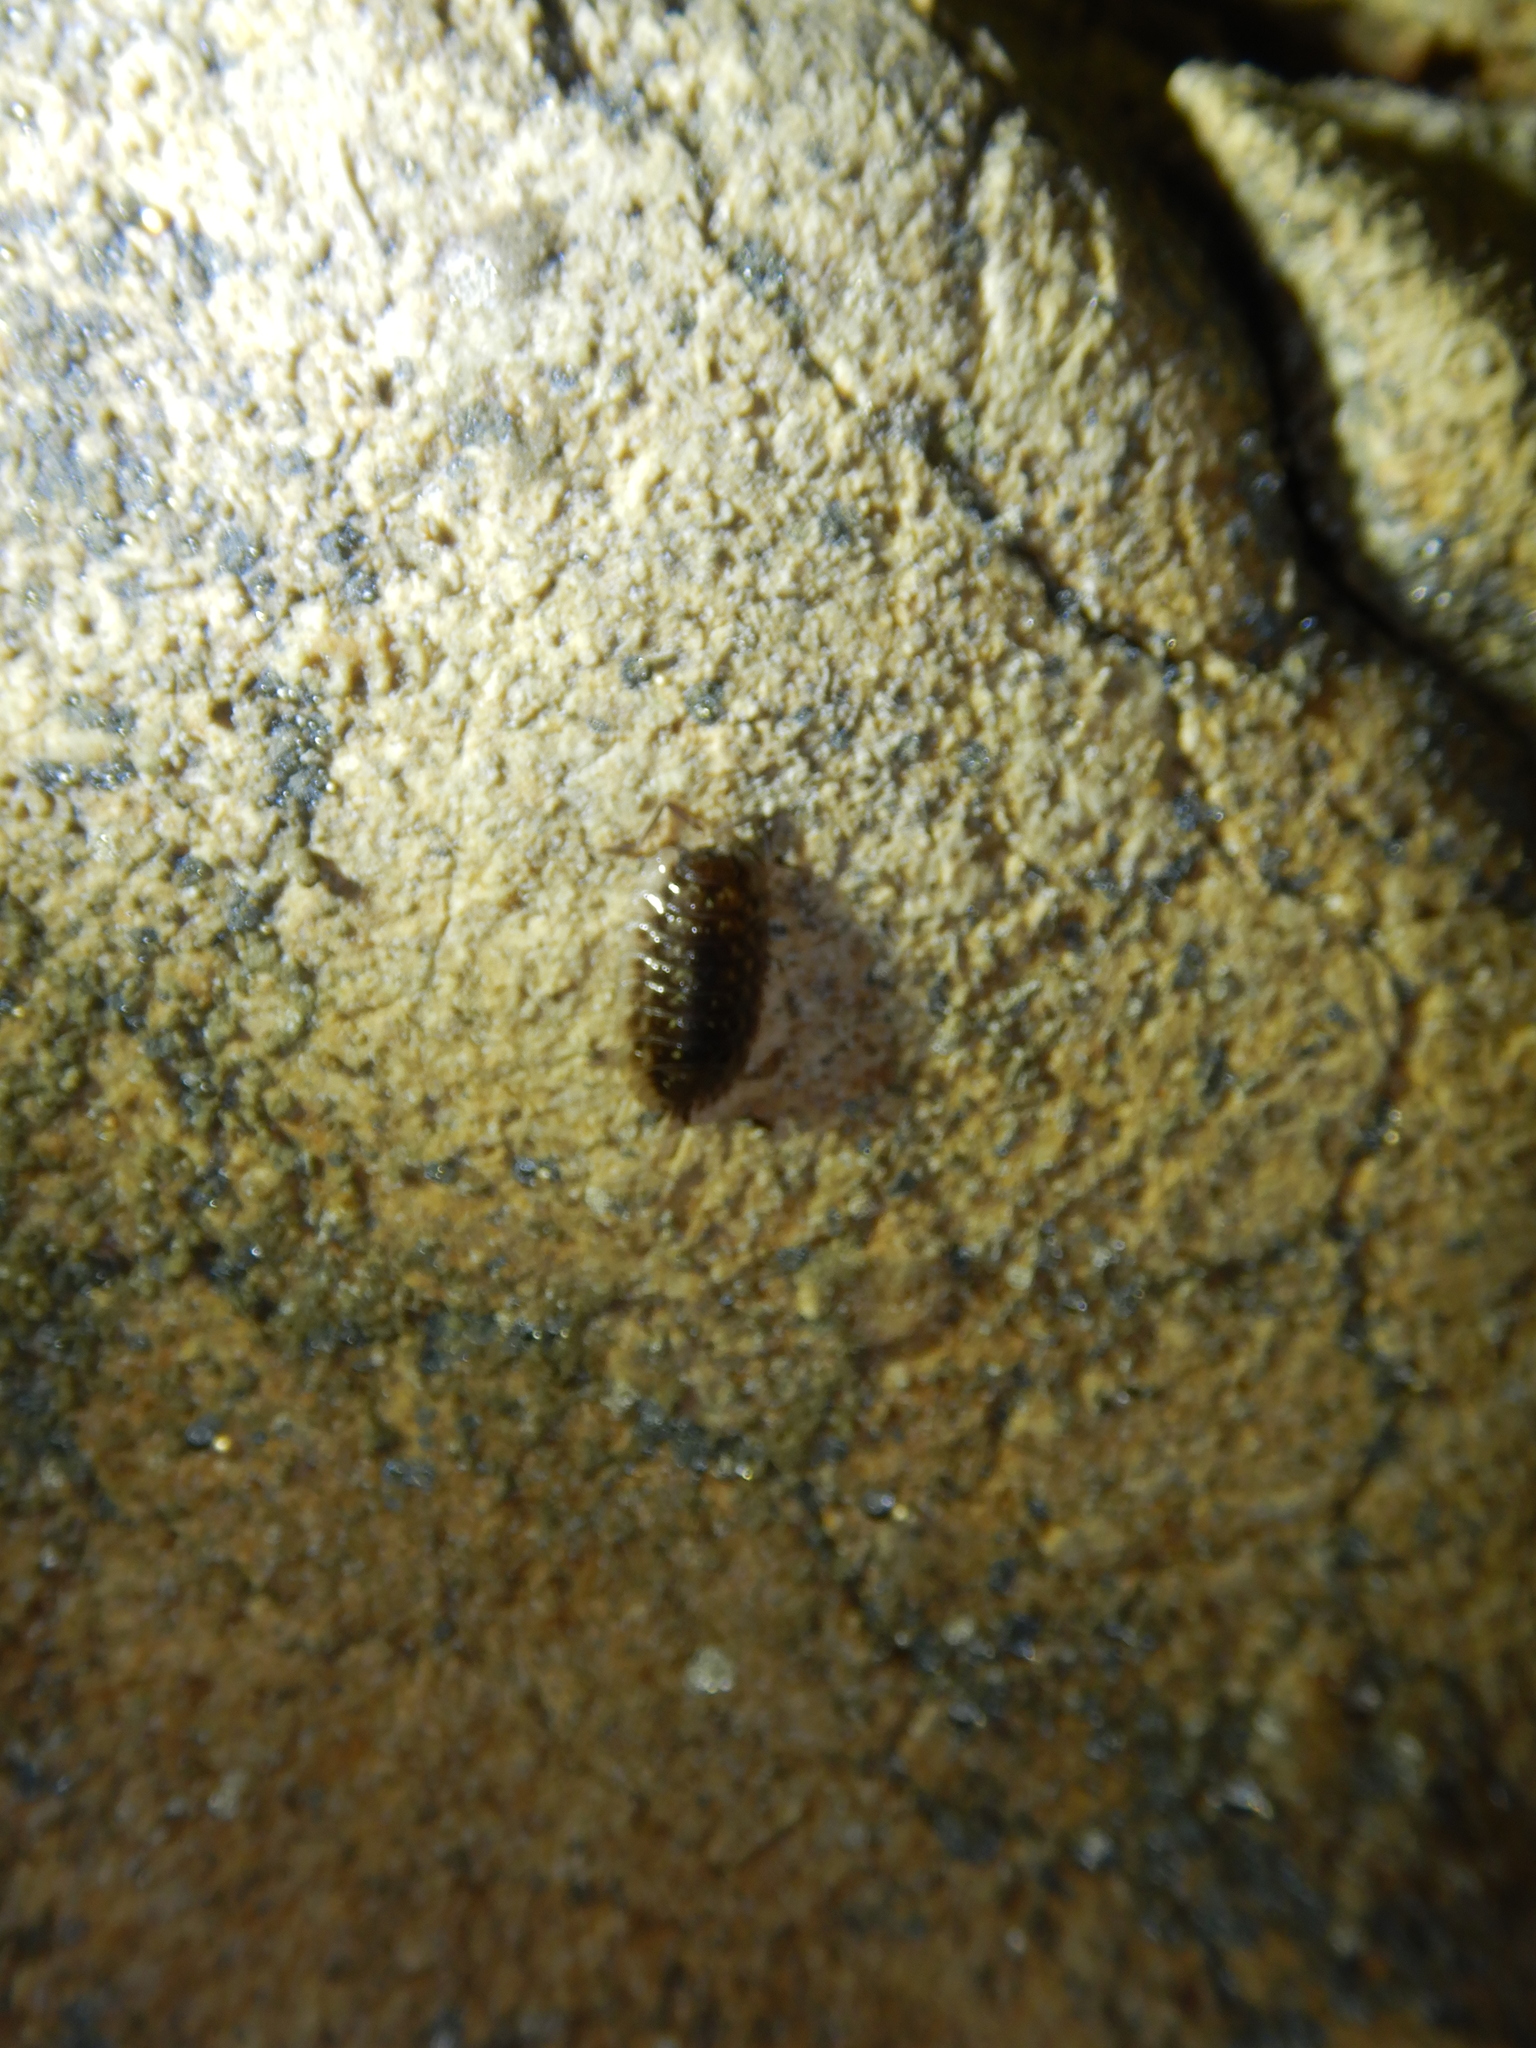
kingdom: Animalia
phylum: Arthropoda
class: Malacostraca
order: Isopoda
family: Oniscidae
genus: Oniscus
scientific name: Oniscus asellus
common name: Common shiny woodlouse
